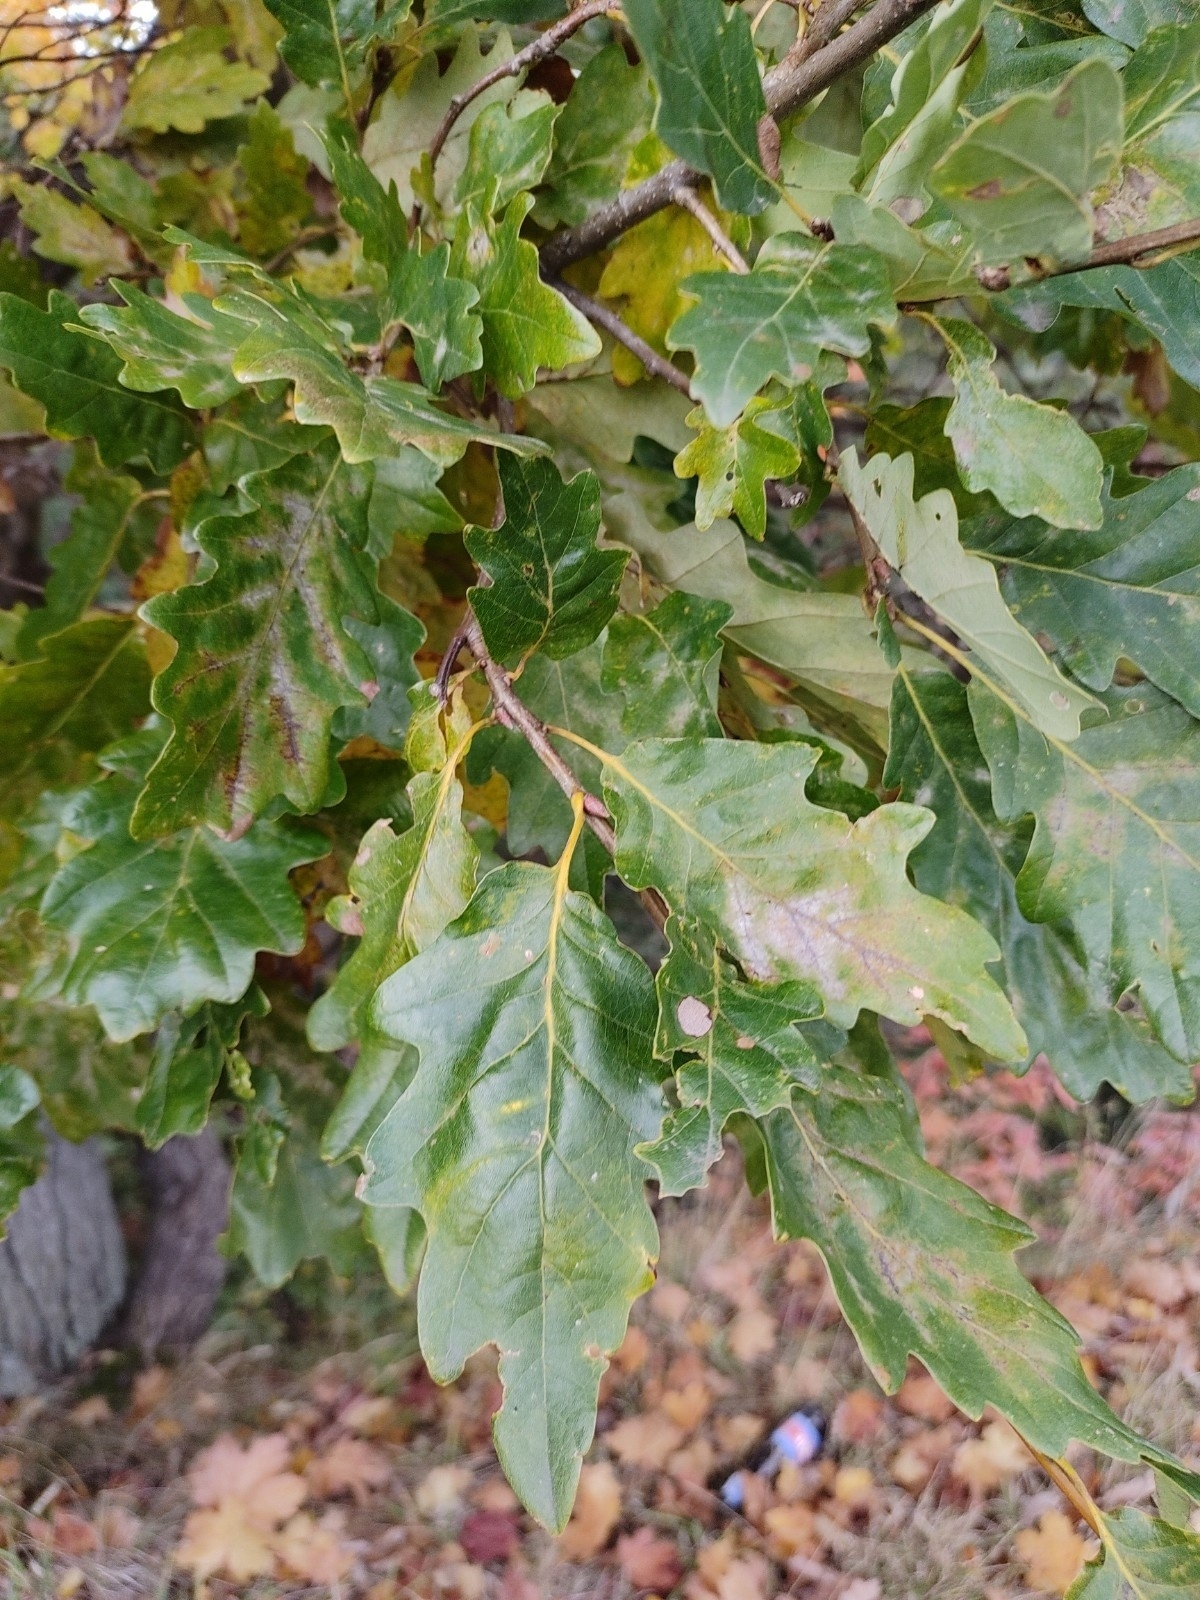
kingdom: Plantae
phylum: Tracheophyta
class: Magnoliopsida
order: Fagales
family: Fagaceae
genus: Quercus
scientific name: Quercus petraea
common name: Sessile oak
